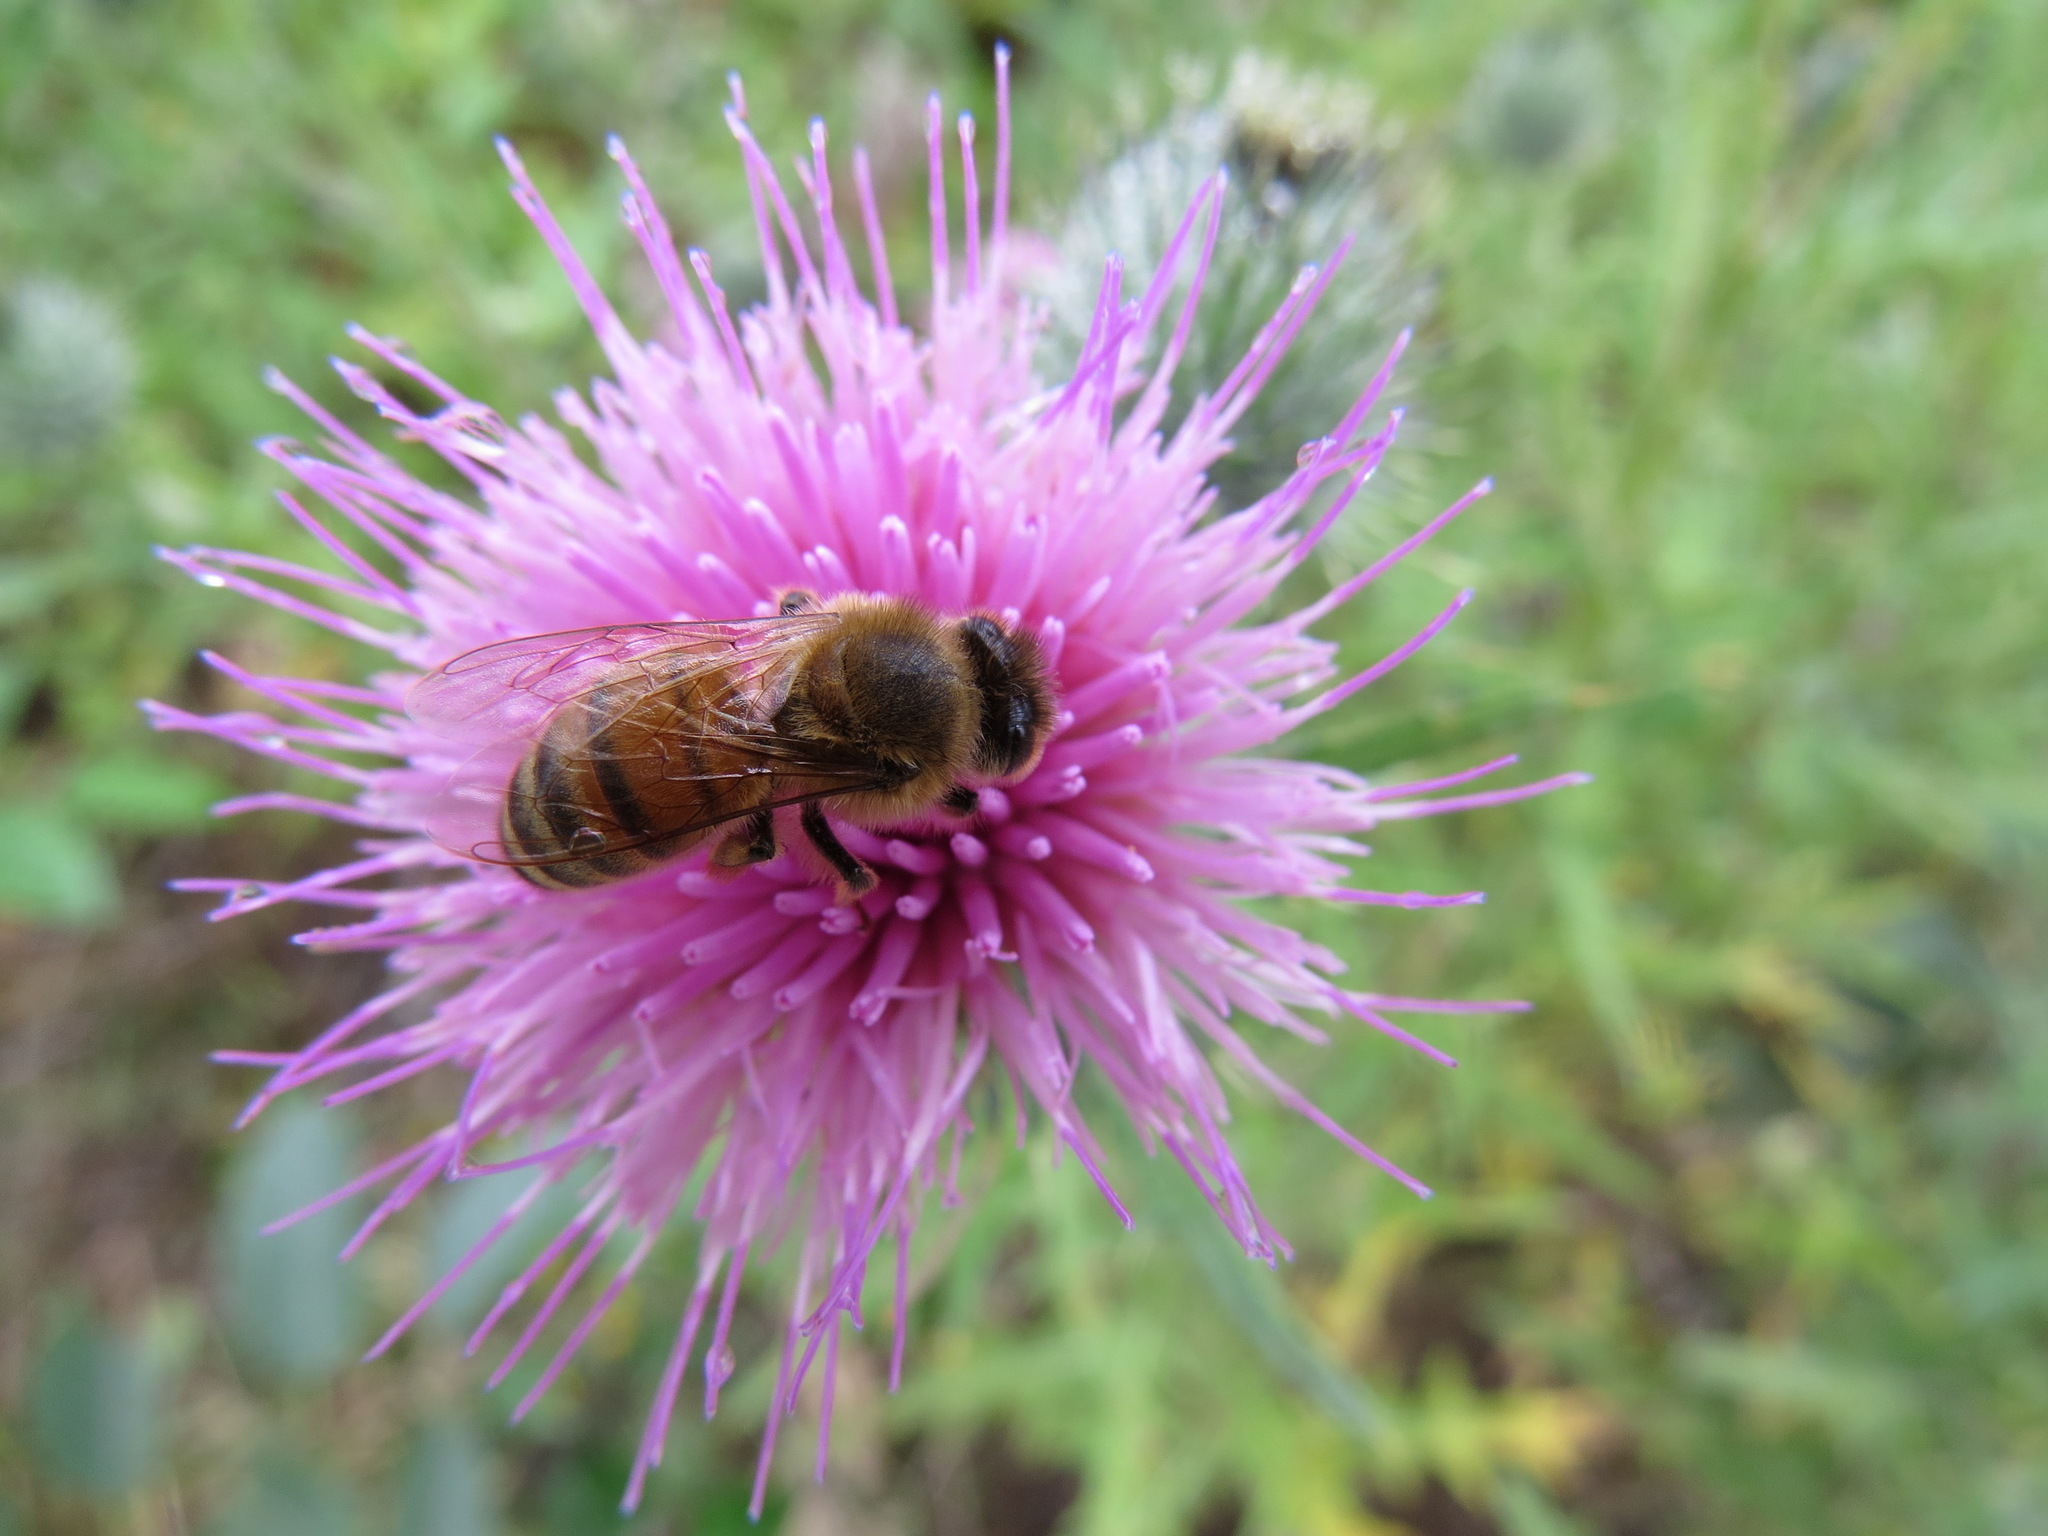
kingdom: Animalia
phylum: Arthropoda
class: Insecta
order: Hymenoptera
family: Apidae
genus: Apis
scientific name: Apis mellifera
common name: Honey bee
